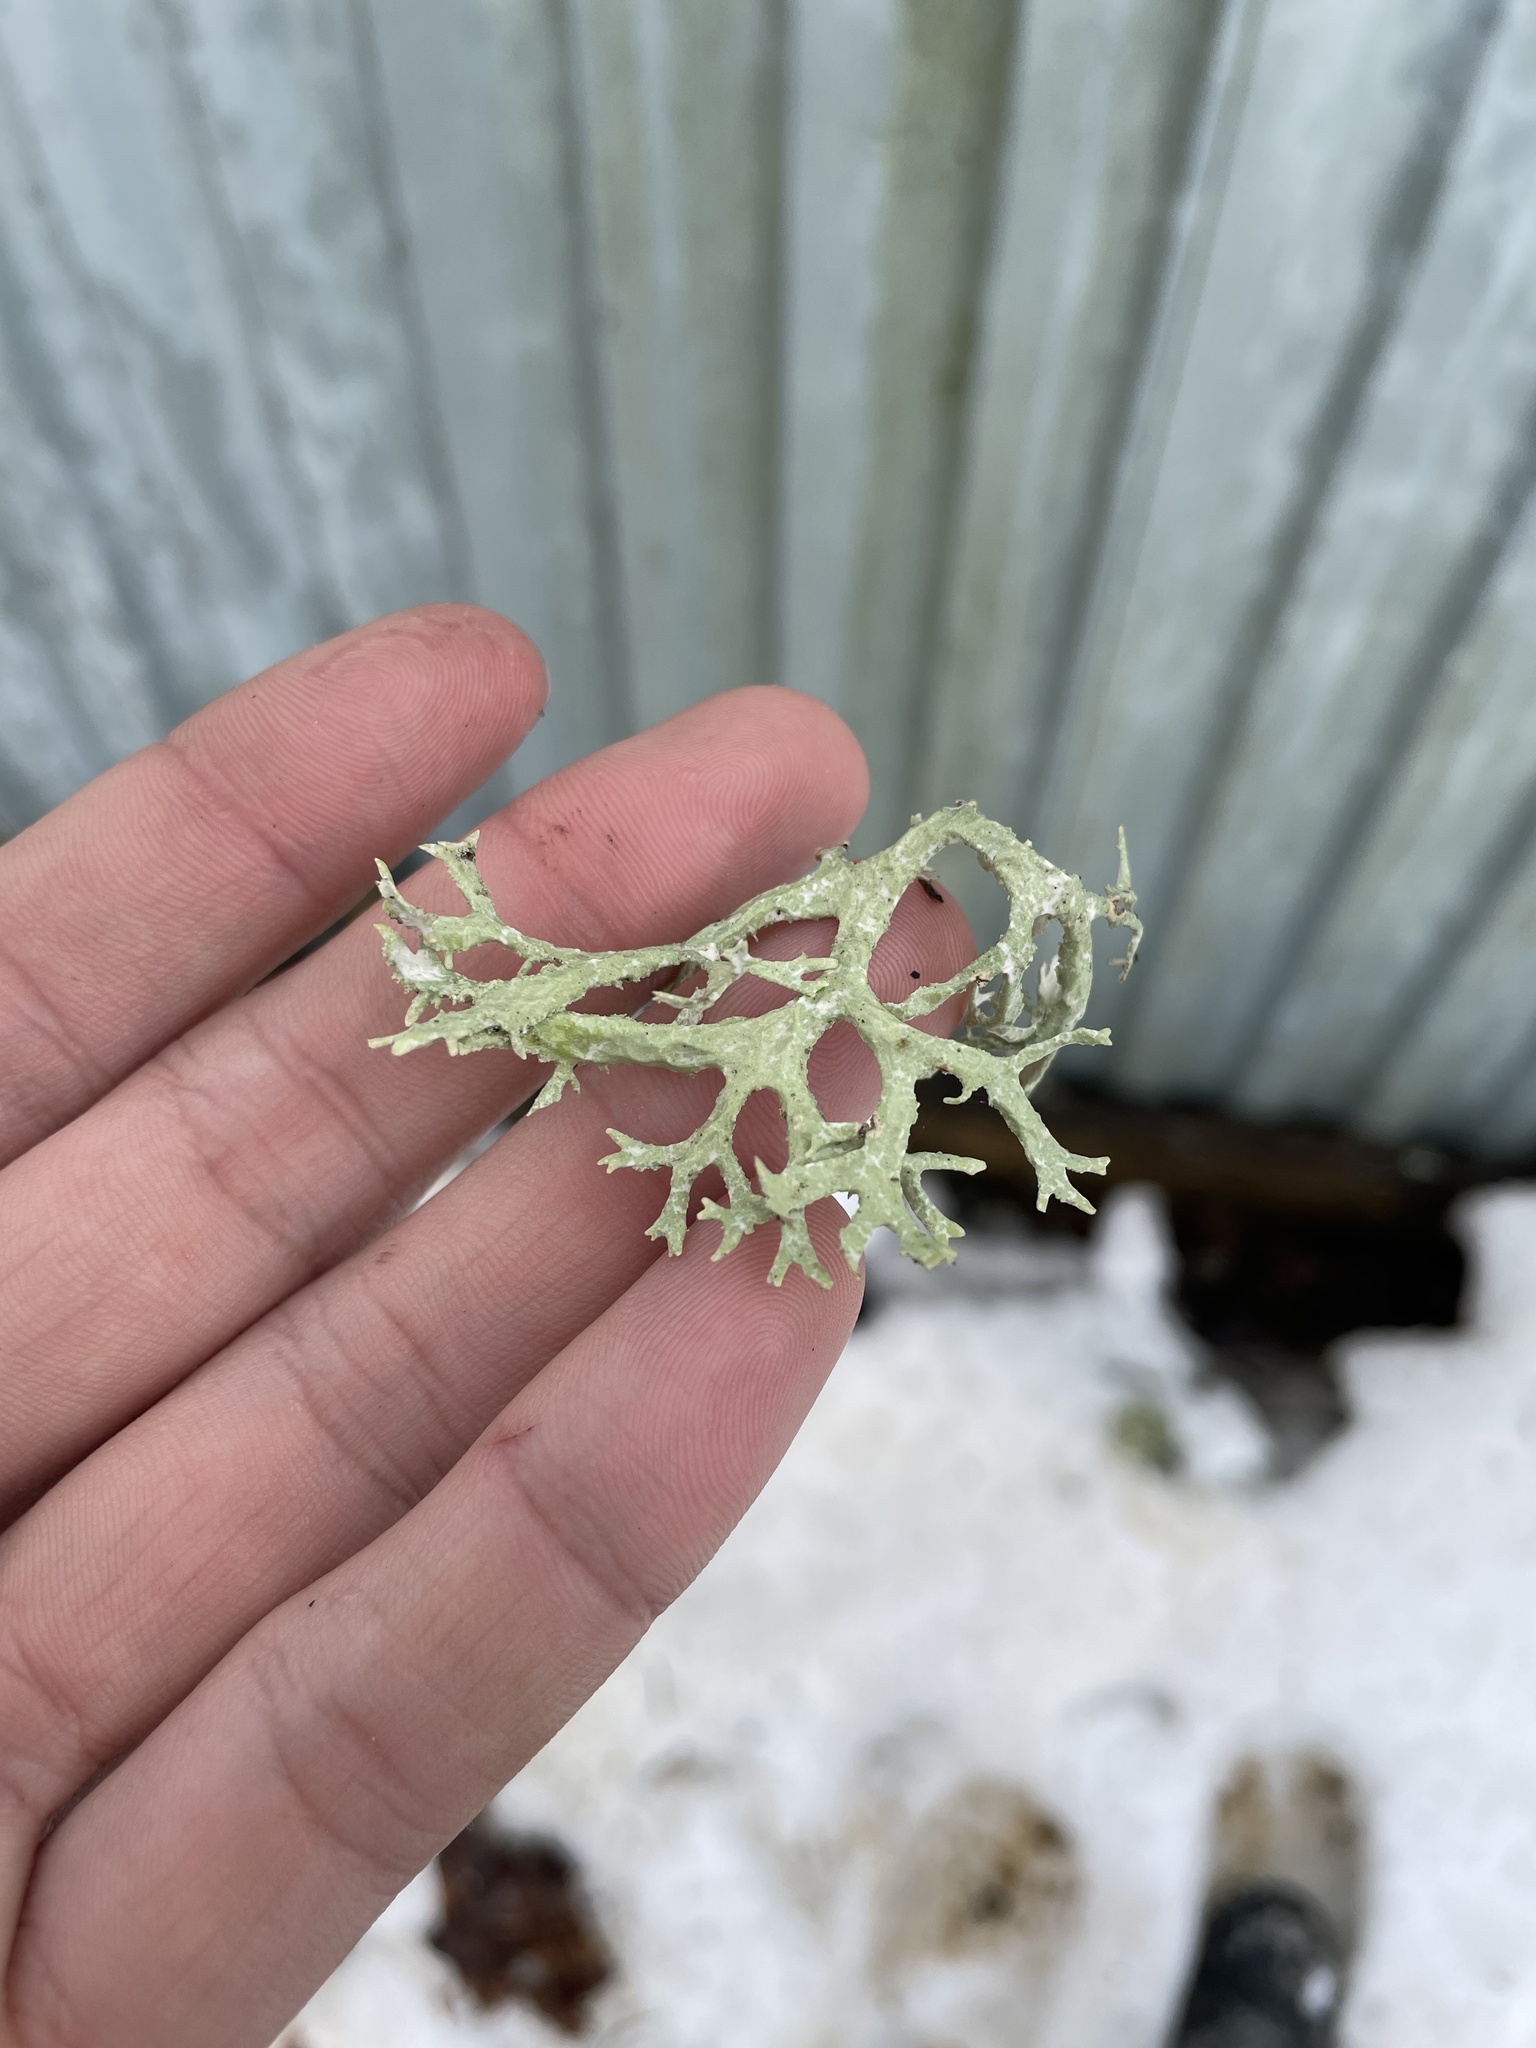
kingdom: Fungi
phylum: Ascomycota
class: Lecanoromycetes
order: Lecanorales
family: Parmeliaceae
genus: Evernia
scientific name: Evernia prunastri
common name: Oak moss
